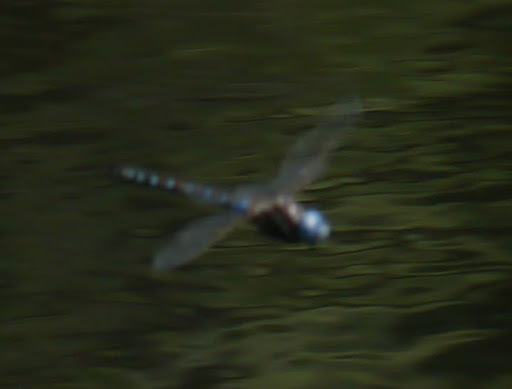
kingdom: Animalia
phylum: Arthropoda
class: Insecta
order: Odonata
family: Aeshnidae
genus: Rhionaeschna
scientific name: Rhionaeschna multicolor
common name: Blue-eyed darner
